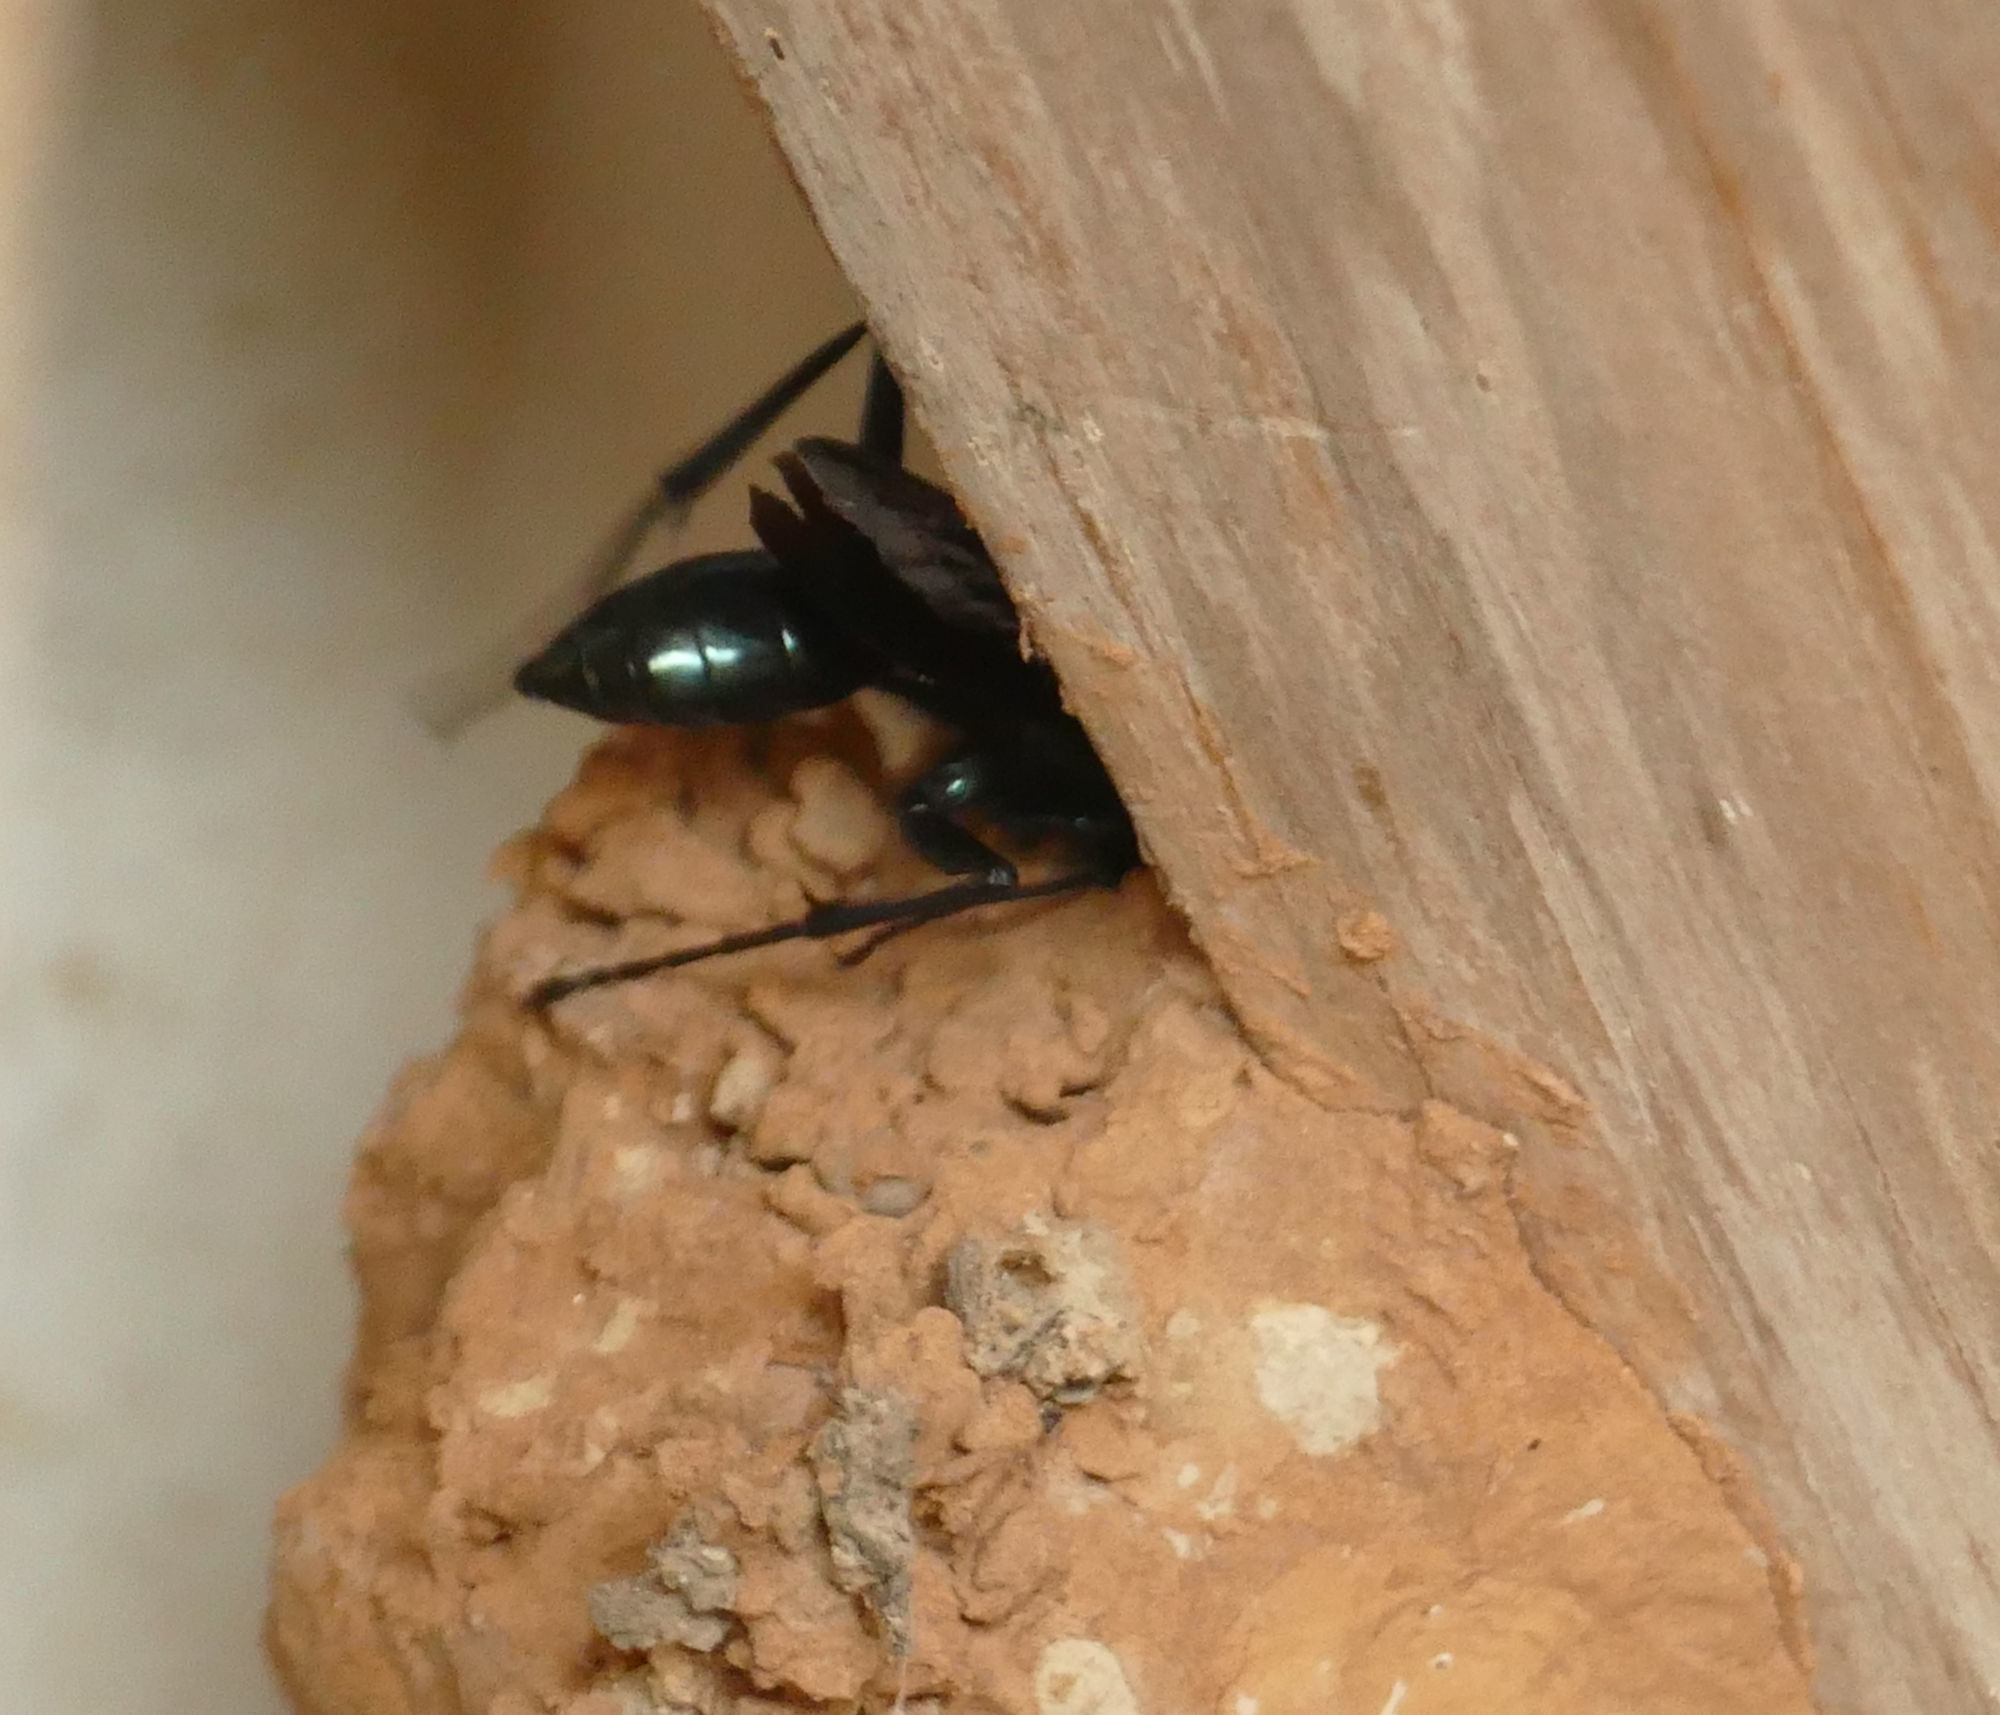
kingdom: Animalia
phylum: Arthropoda
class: Insecta
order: Hymenoptera
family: Sphecidae
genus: Chalybion
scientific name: Chalybion californicum
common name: Mud dauber
